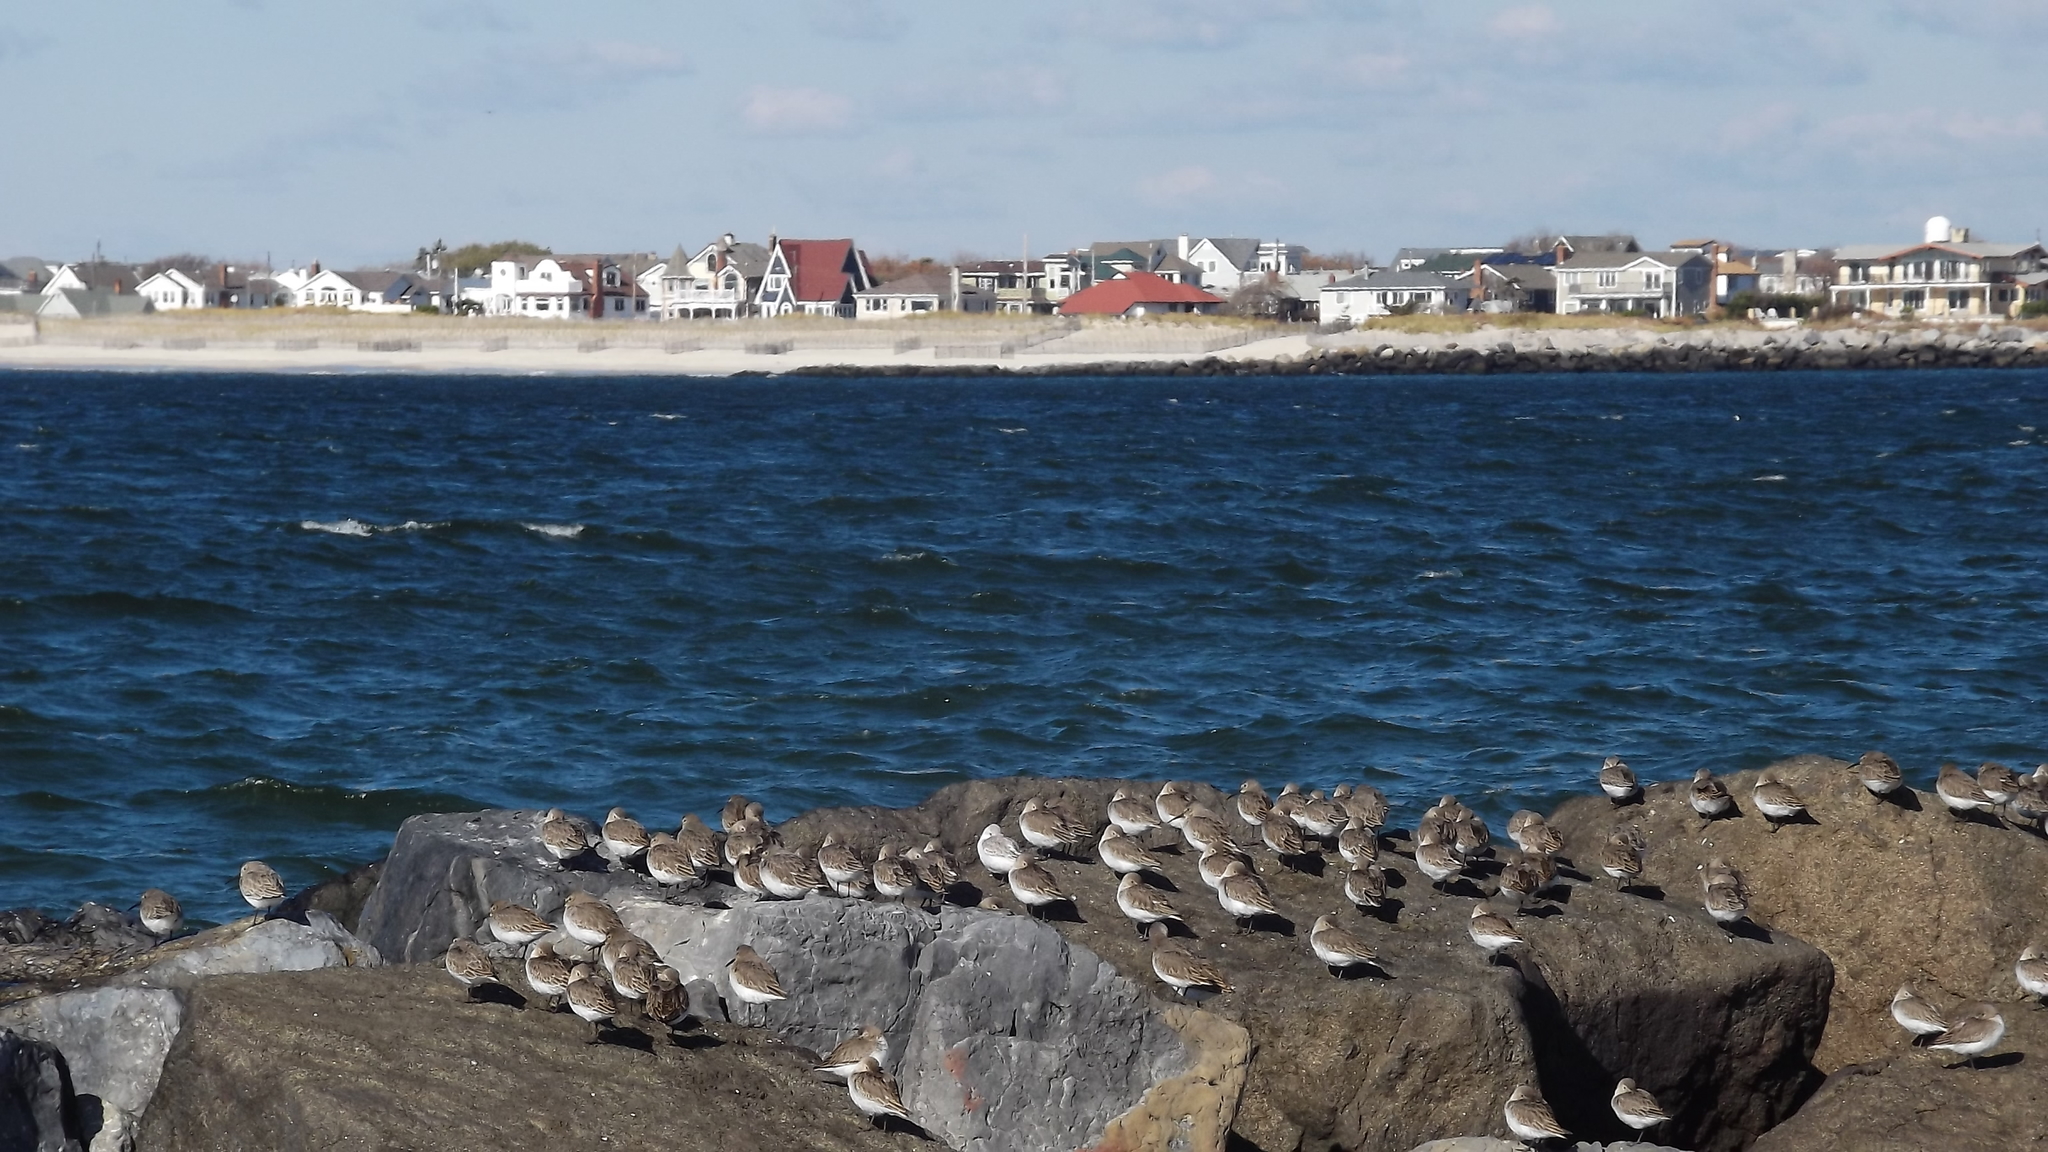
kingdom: Animalia
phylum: Chordata
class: Aves
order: Charadriiformes
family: Scolopacidae
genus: Calidris
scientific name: Calidris alpina
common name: Dunlin
